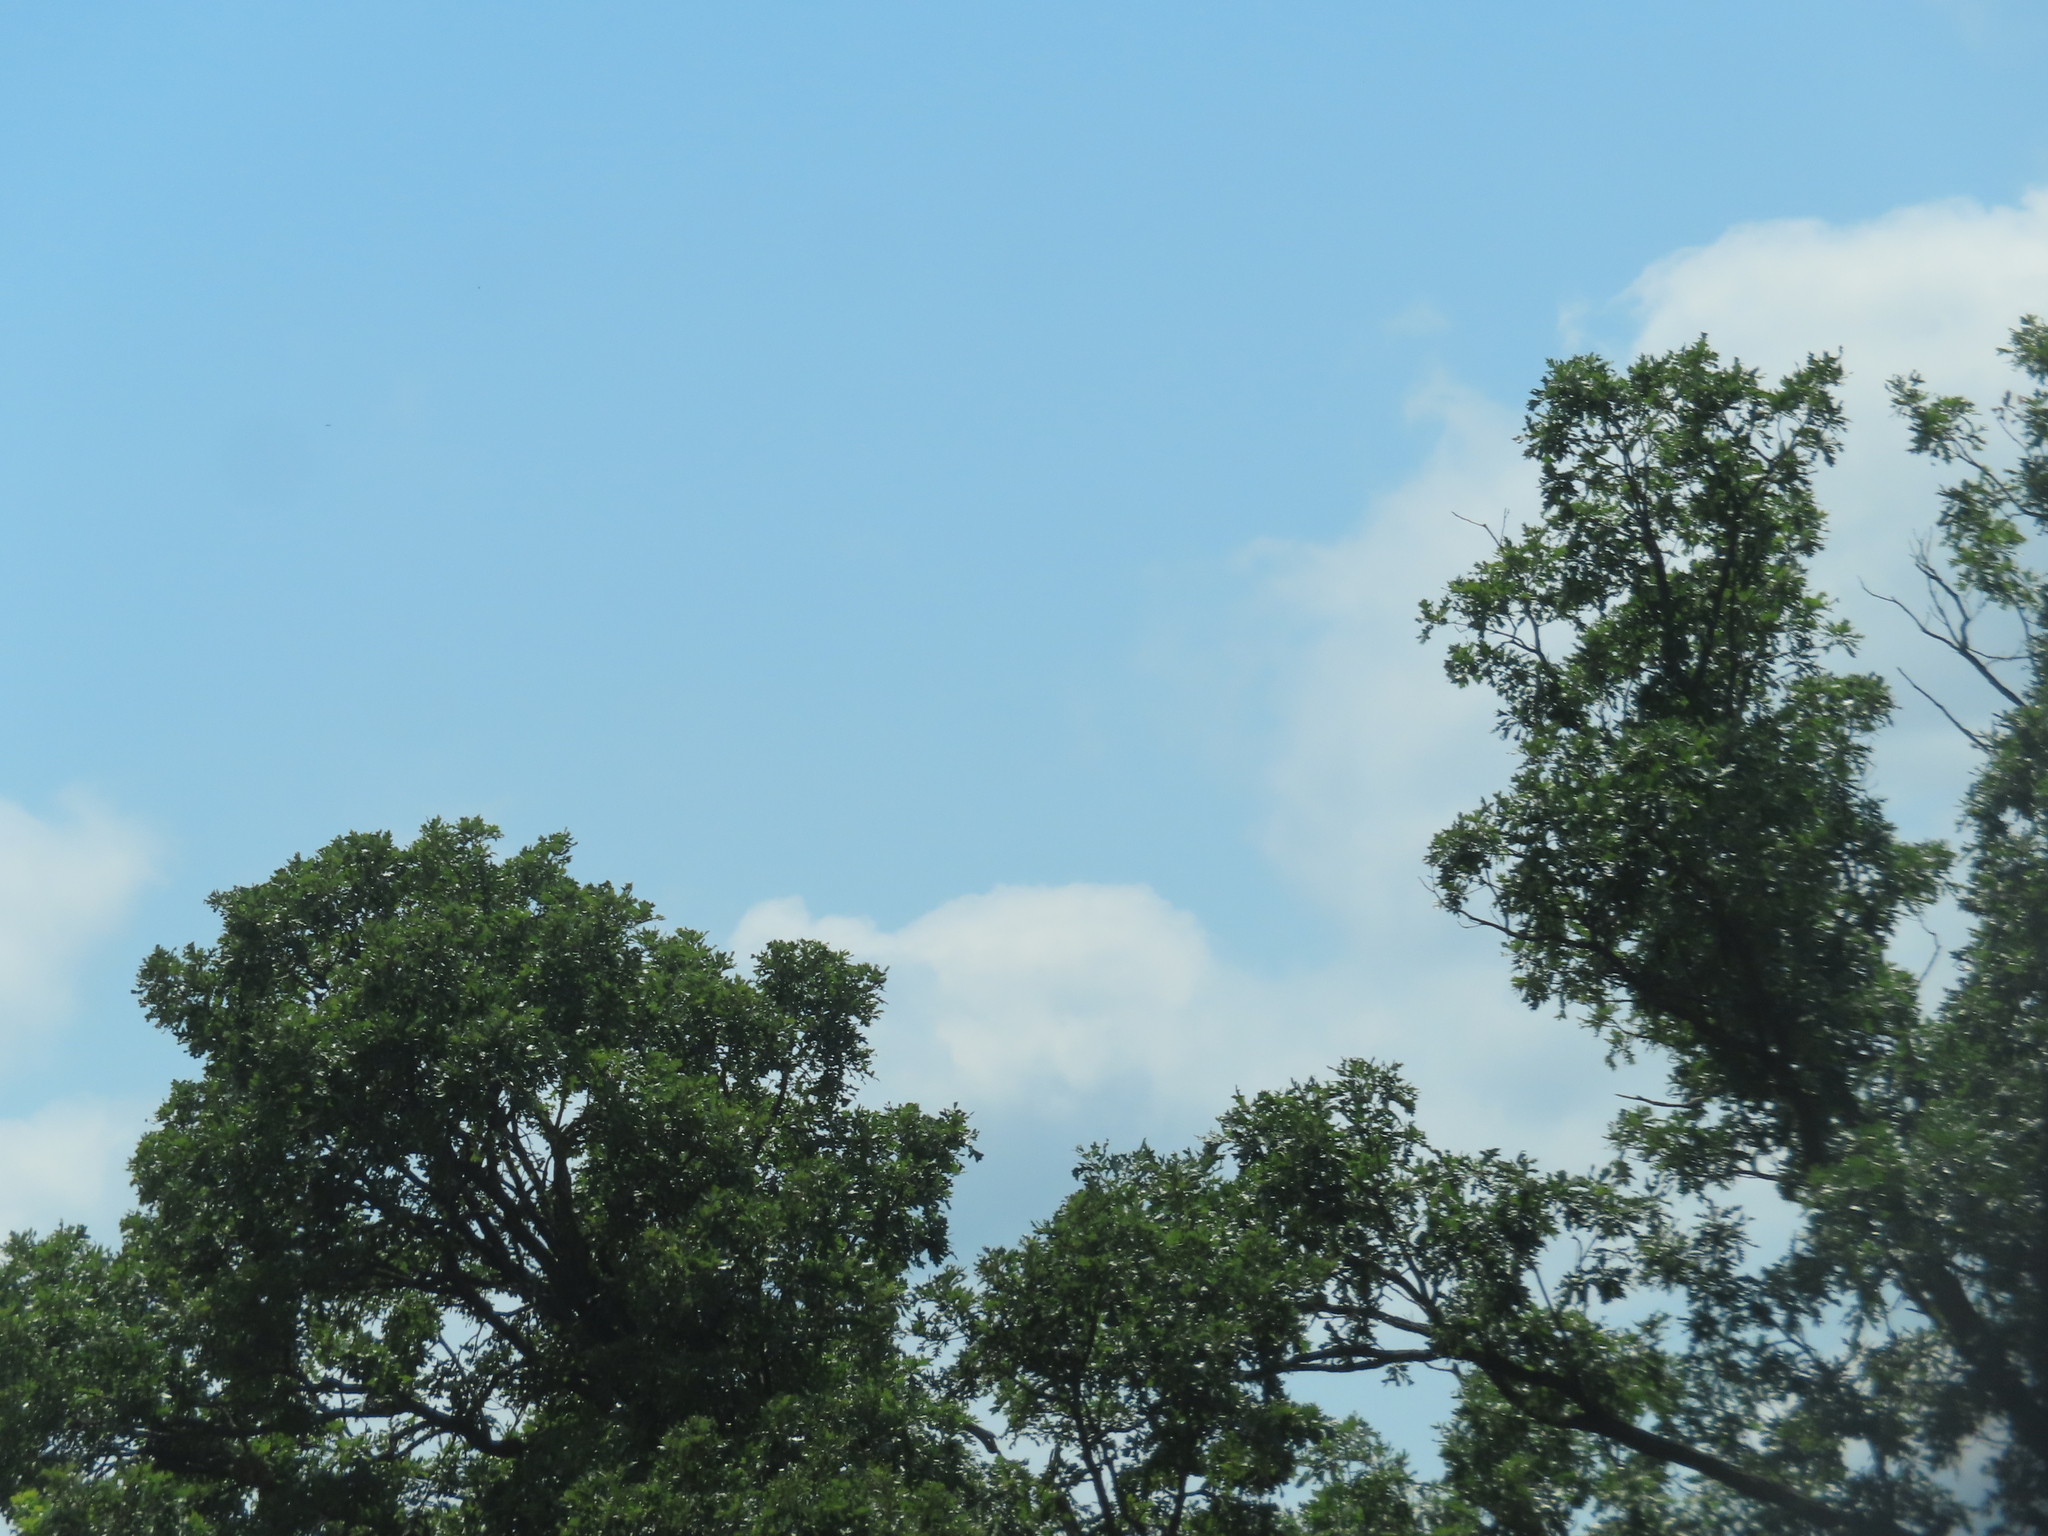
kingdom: Plantae
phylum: Tracheophyta
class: Magnoliopsida
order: Fagales
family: Fagaceae
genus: Quercus
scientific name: Quercus macrocarpa
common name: Bur oak
